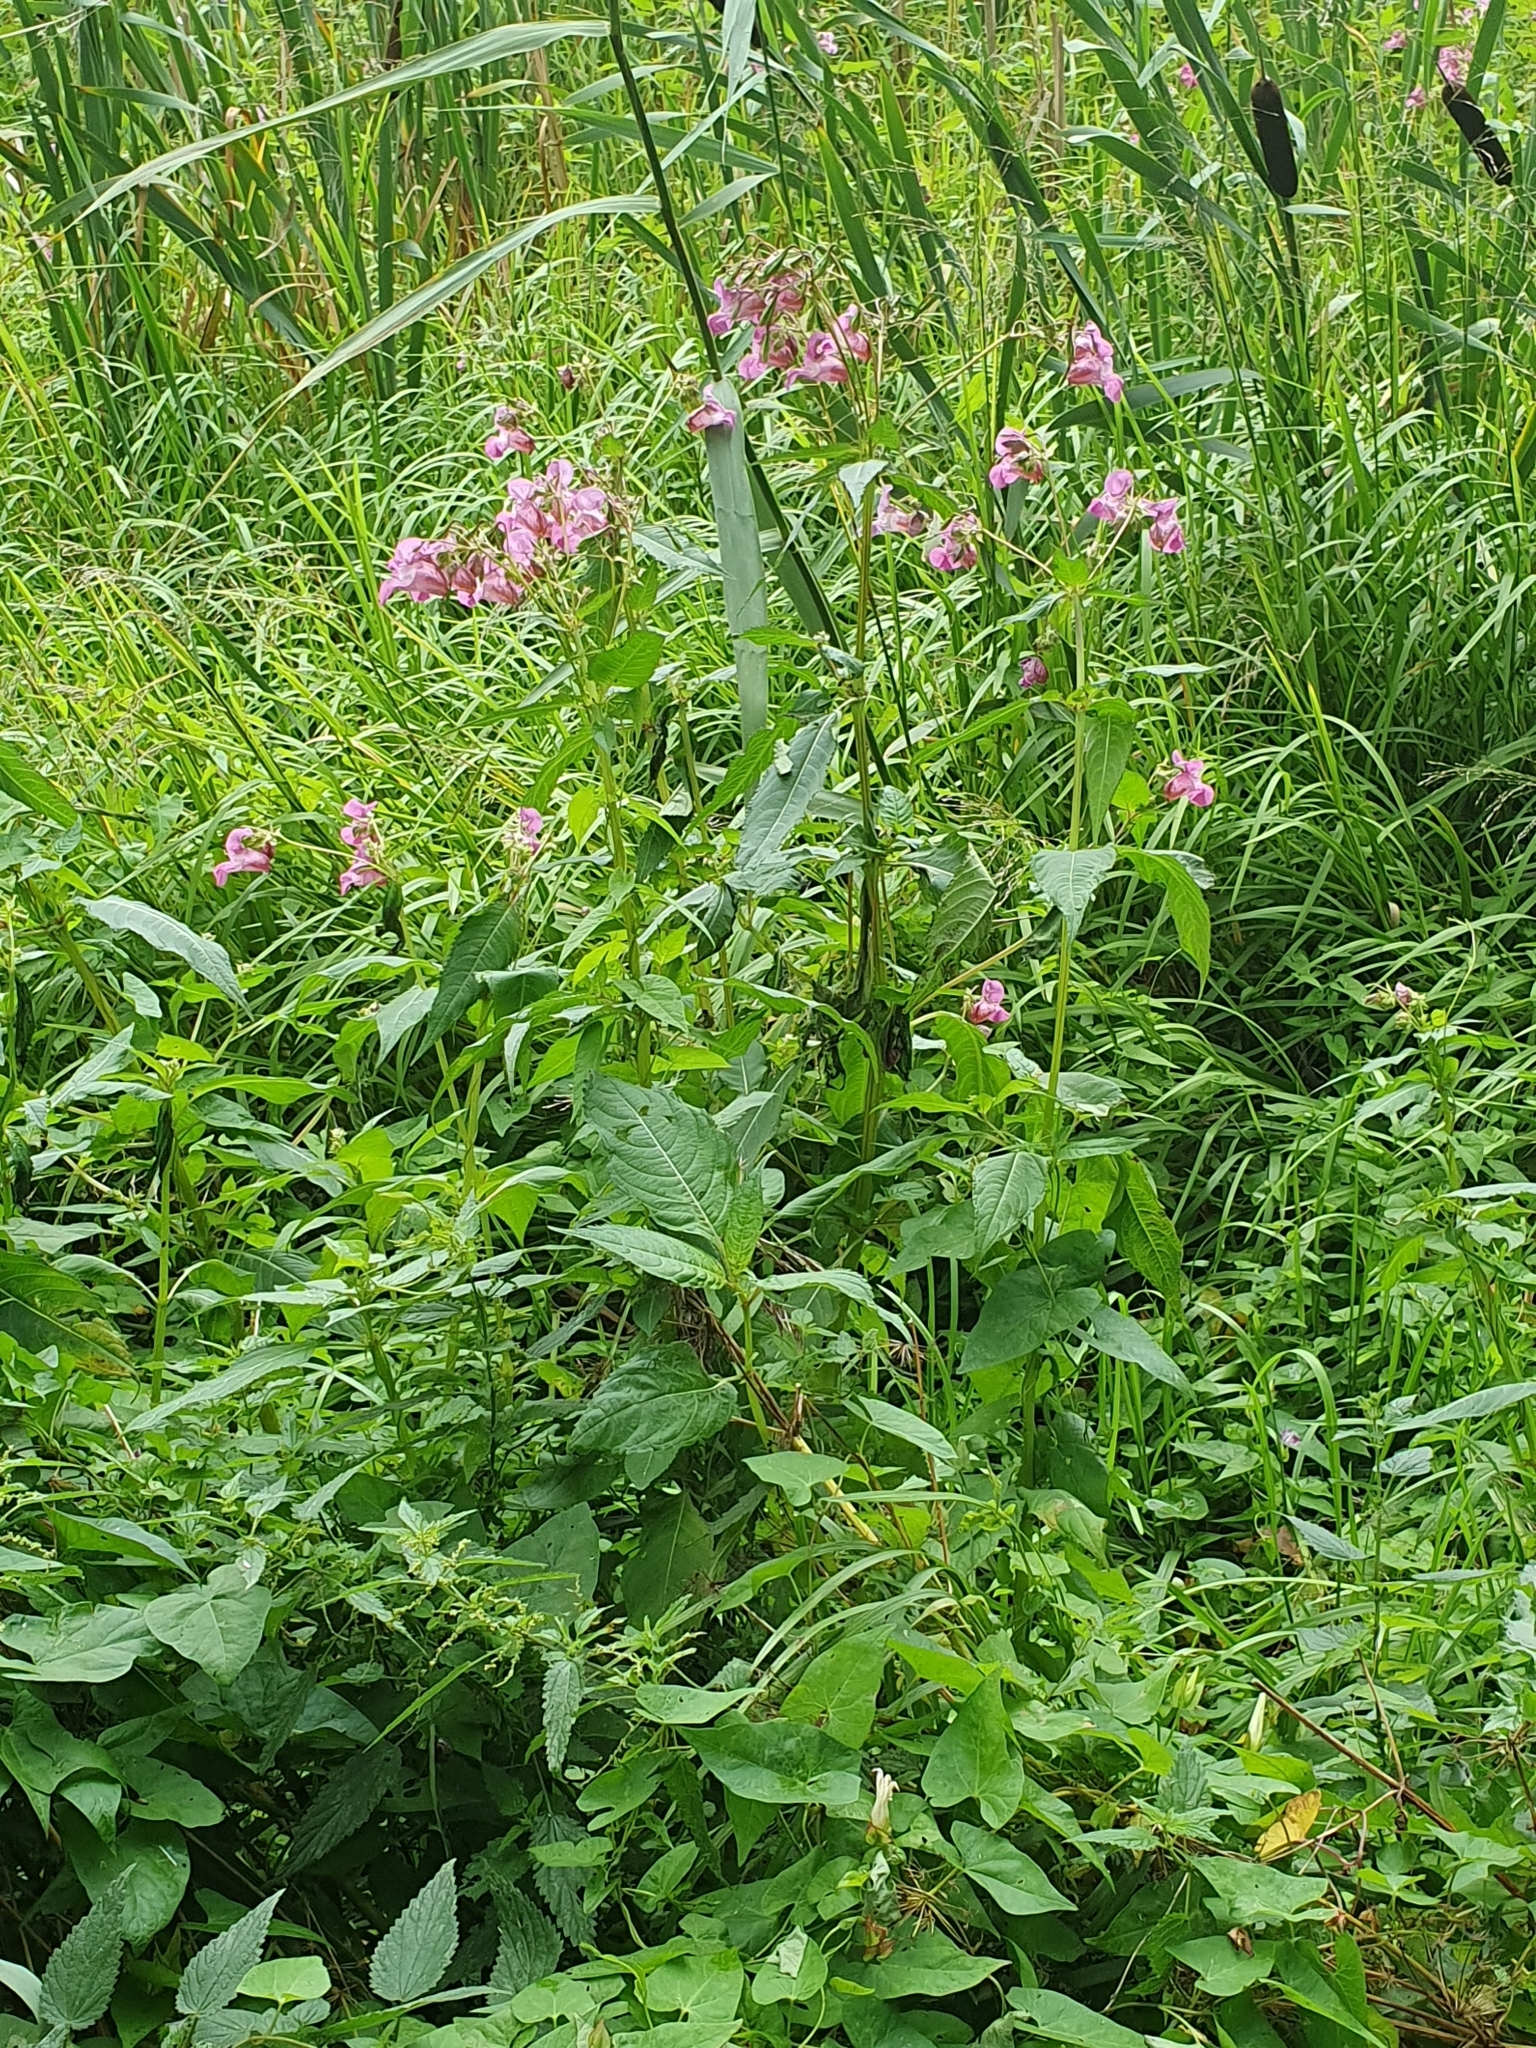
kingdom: Plantae
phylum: Tracheophyta
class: Magnoliopsida
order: Ericales
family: Balsaminaceae
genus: Impatiens
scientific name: Impatiens glandulifera
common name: Himalayan balsam
